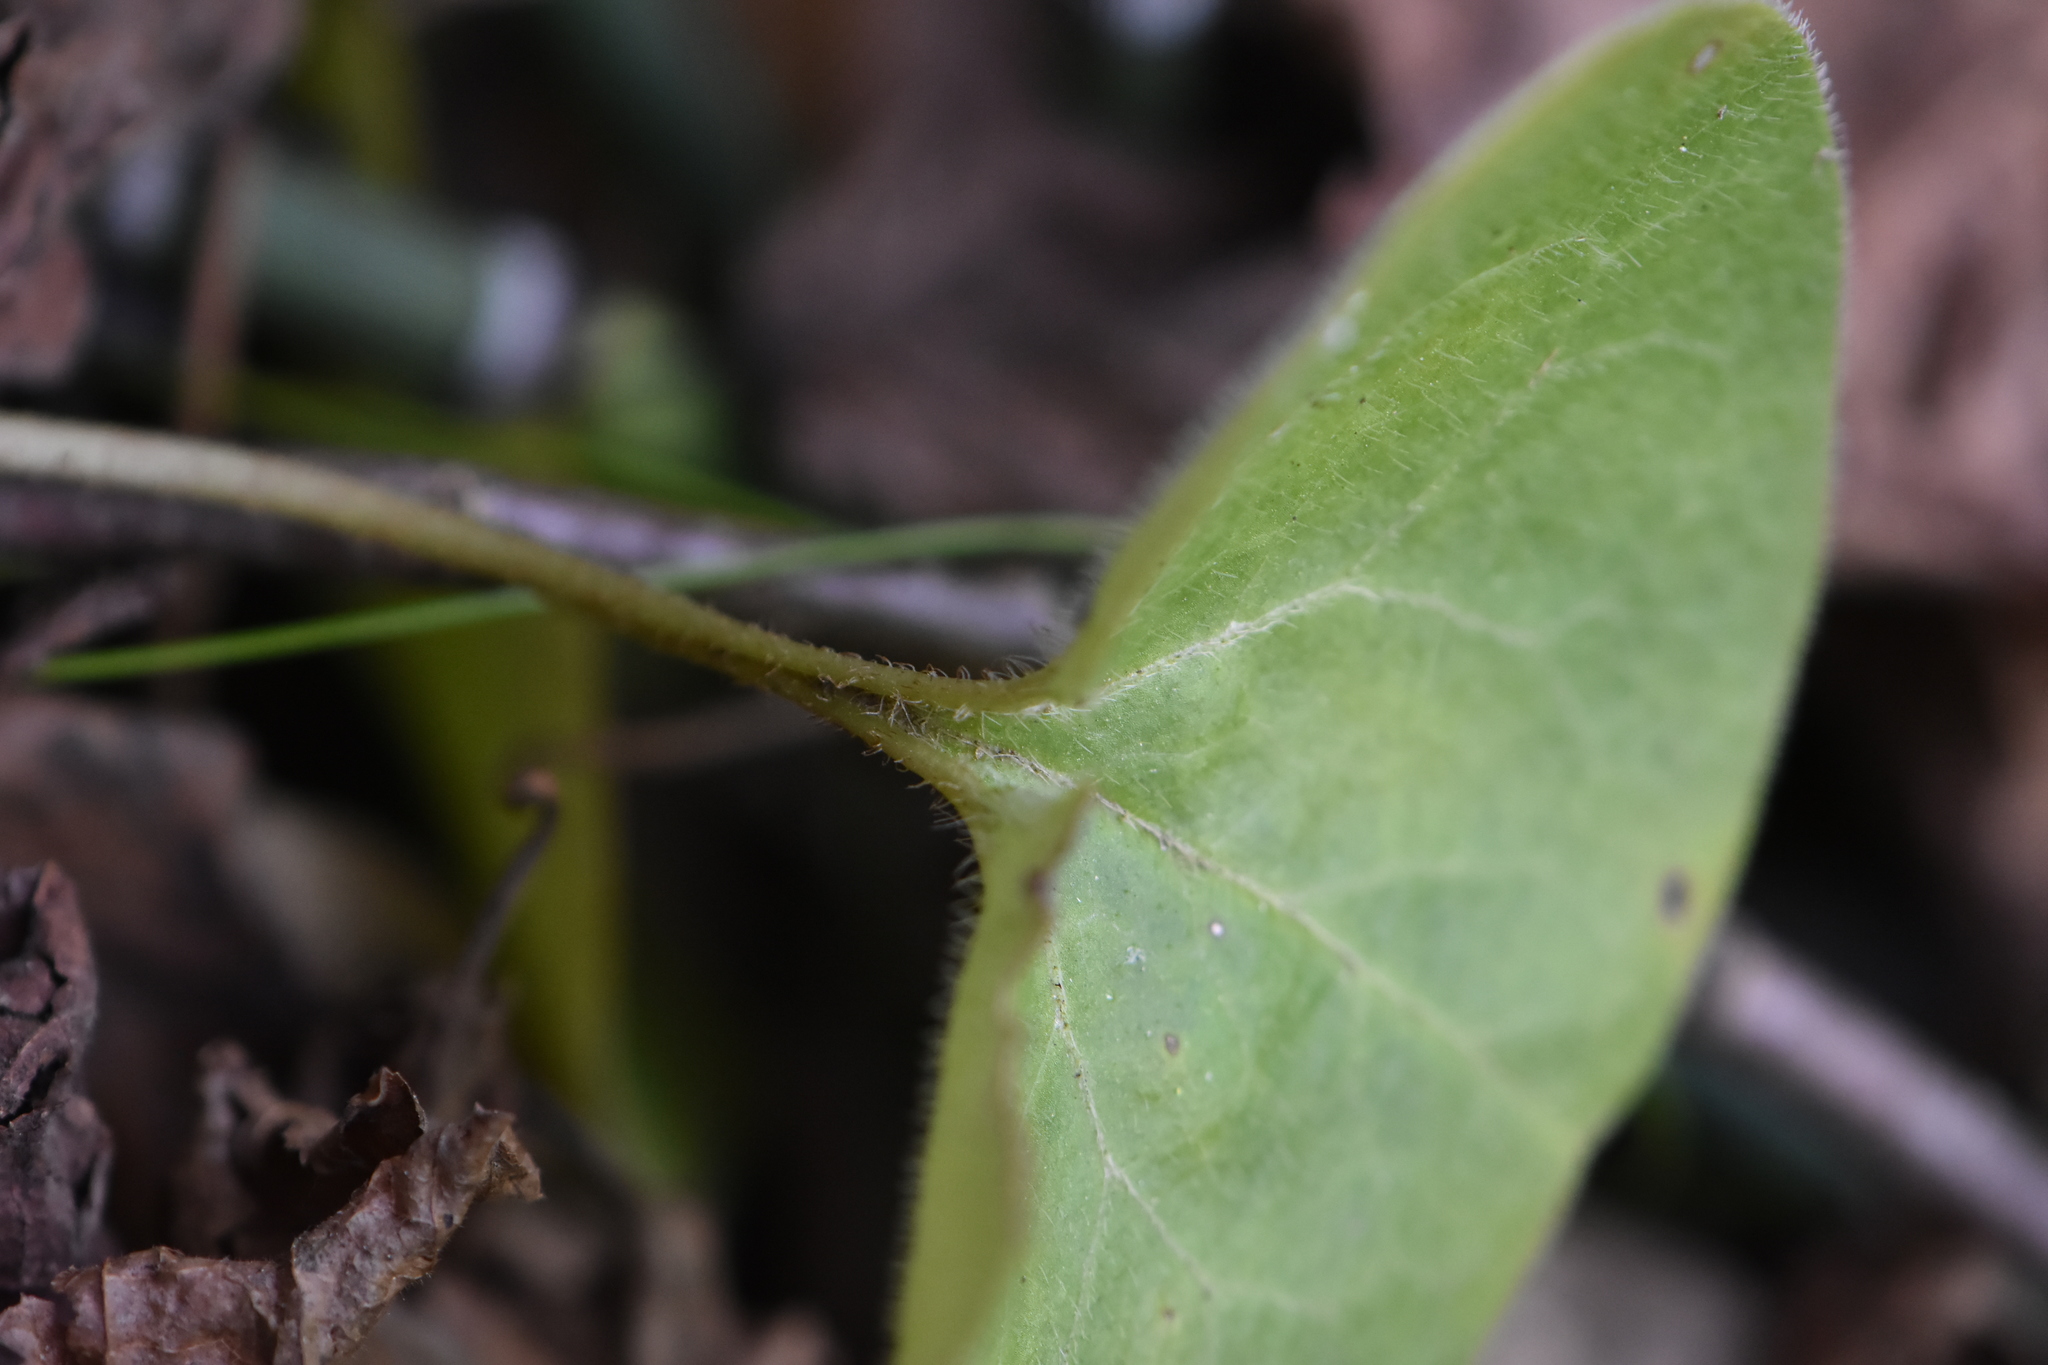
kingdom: Plantae
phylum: Tracheophyta
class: Magnoliopsida
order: Piperales
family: Aristolochiaceae
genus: Asarum
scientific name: Asarum europaeum
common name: Asarabacca
